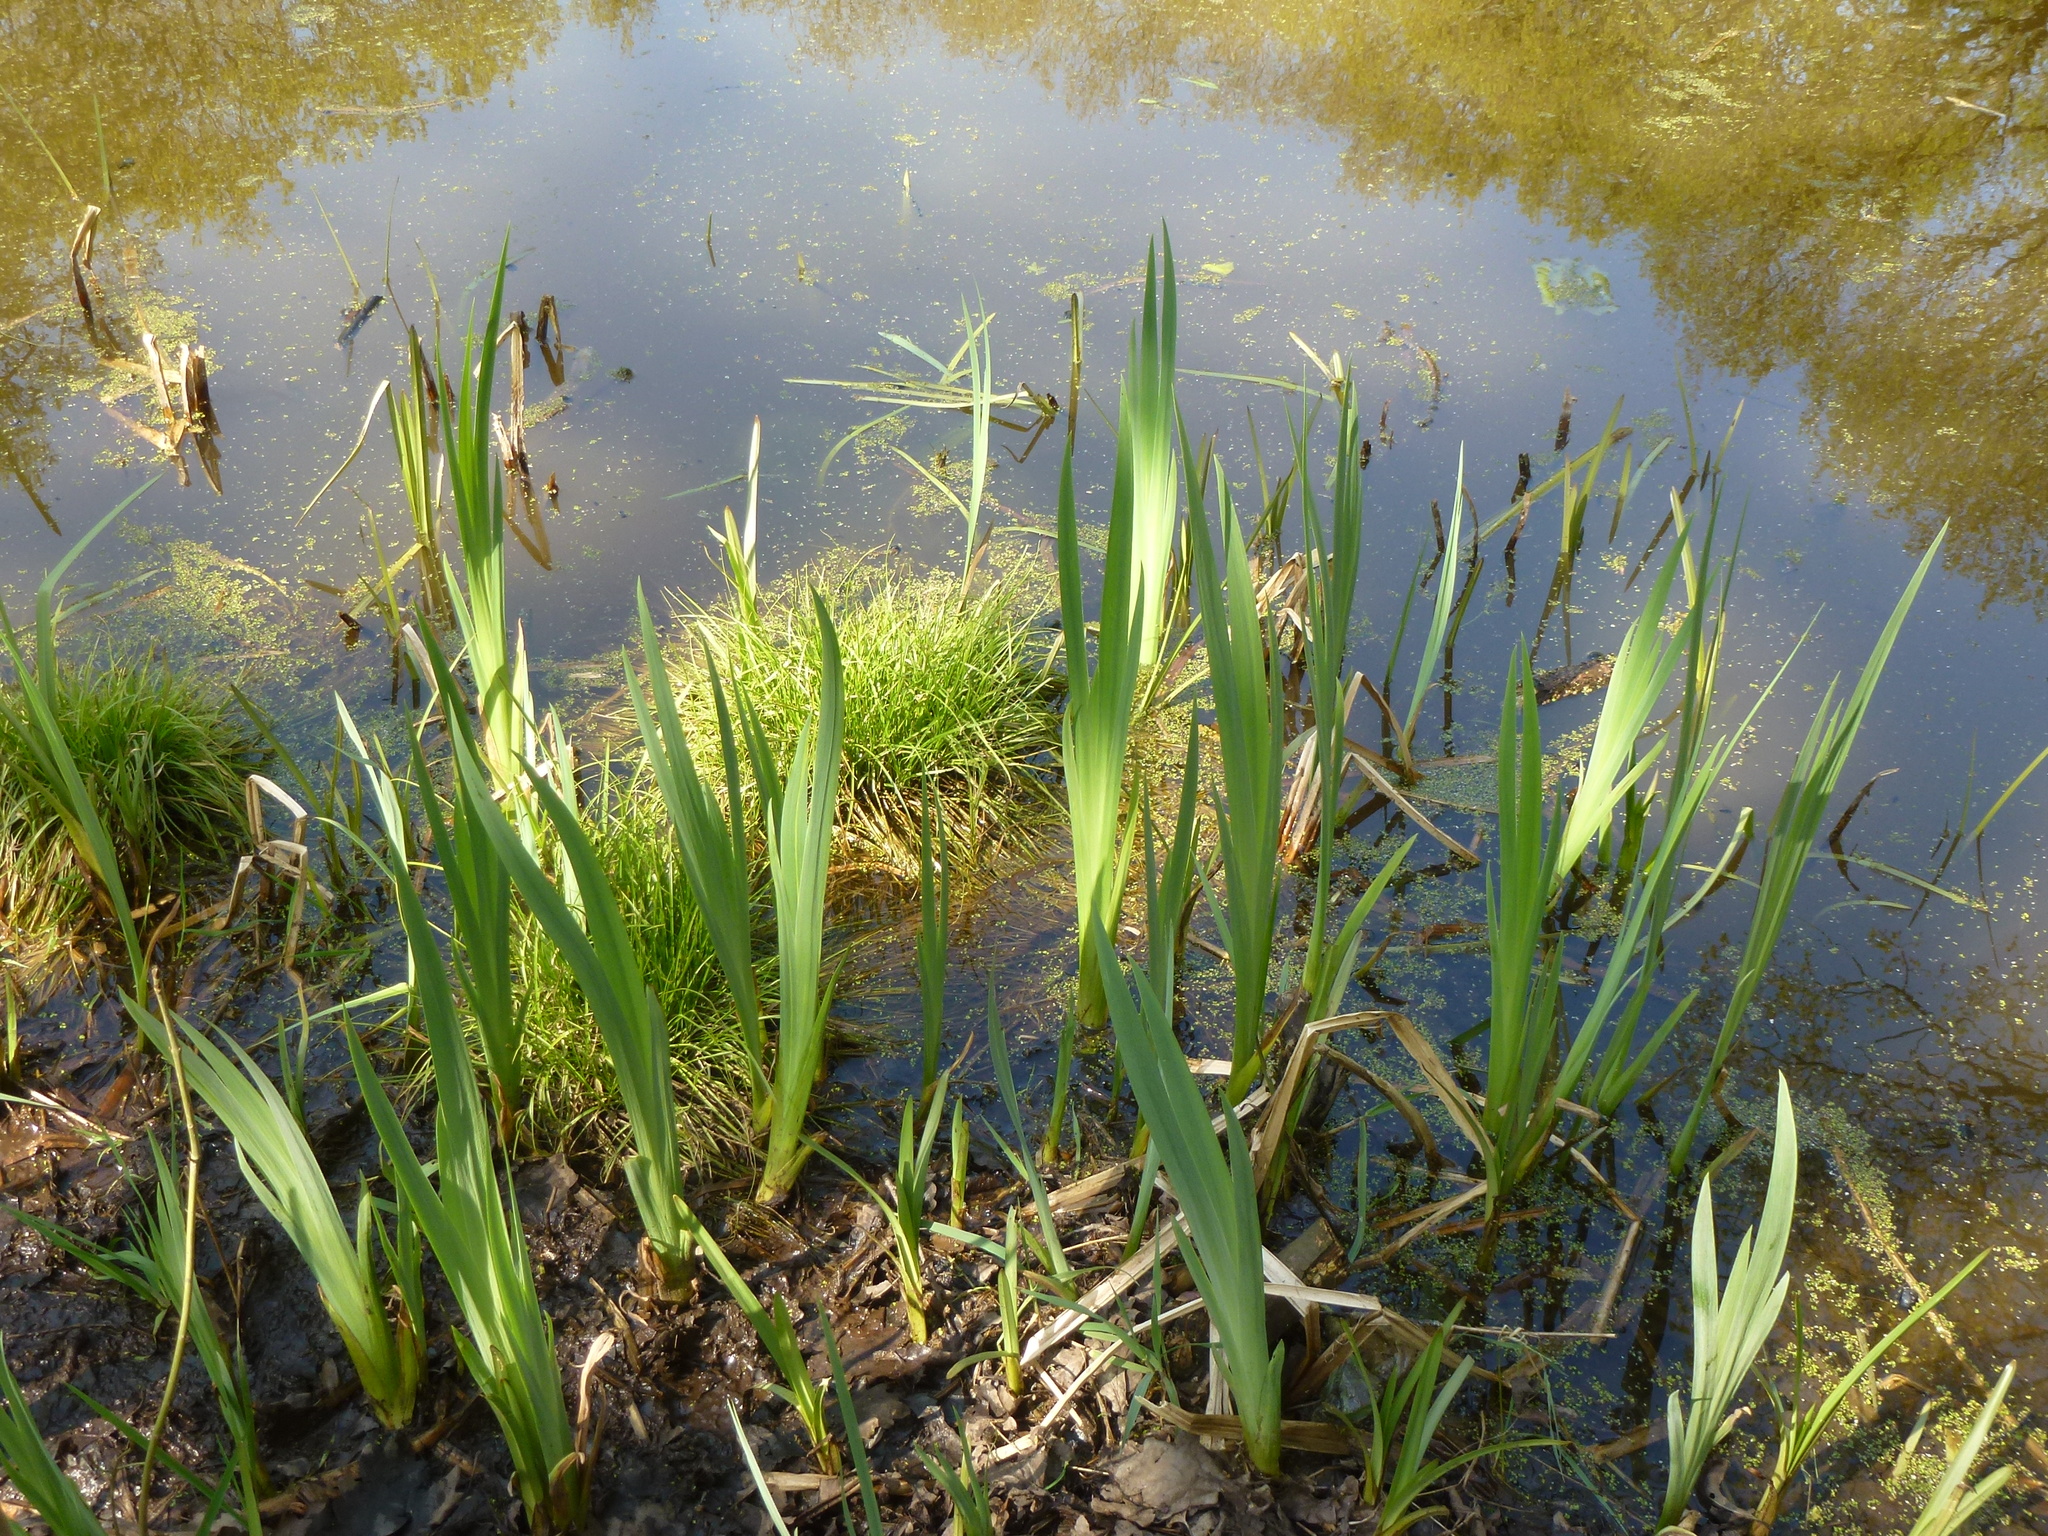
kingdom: Plantae
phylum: Tracheophyta
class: Liliopsida
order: Asparagales
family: Iridaceae
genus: Iris
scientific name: Iris pseudacorus
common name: Yellow flag
